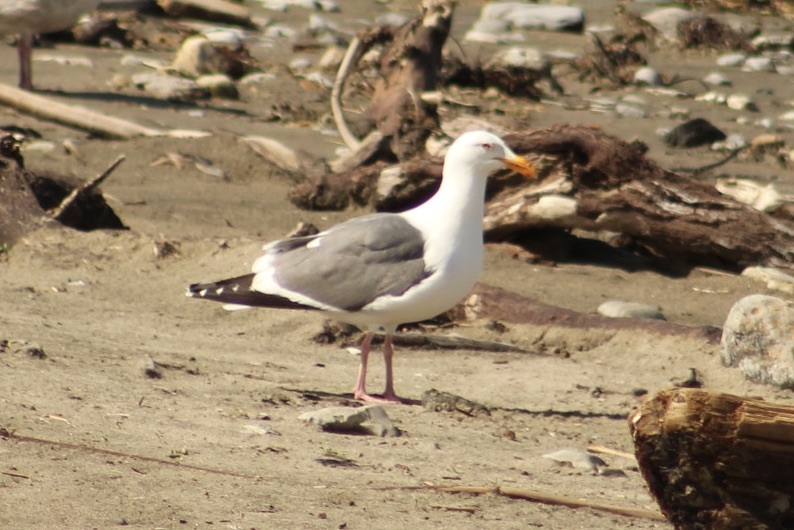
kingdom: Animalia
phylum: Chordata
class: Aves
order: Charadriiformes
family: Laridae
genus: Larus
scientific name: Larus occidentalis
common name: Western gull
